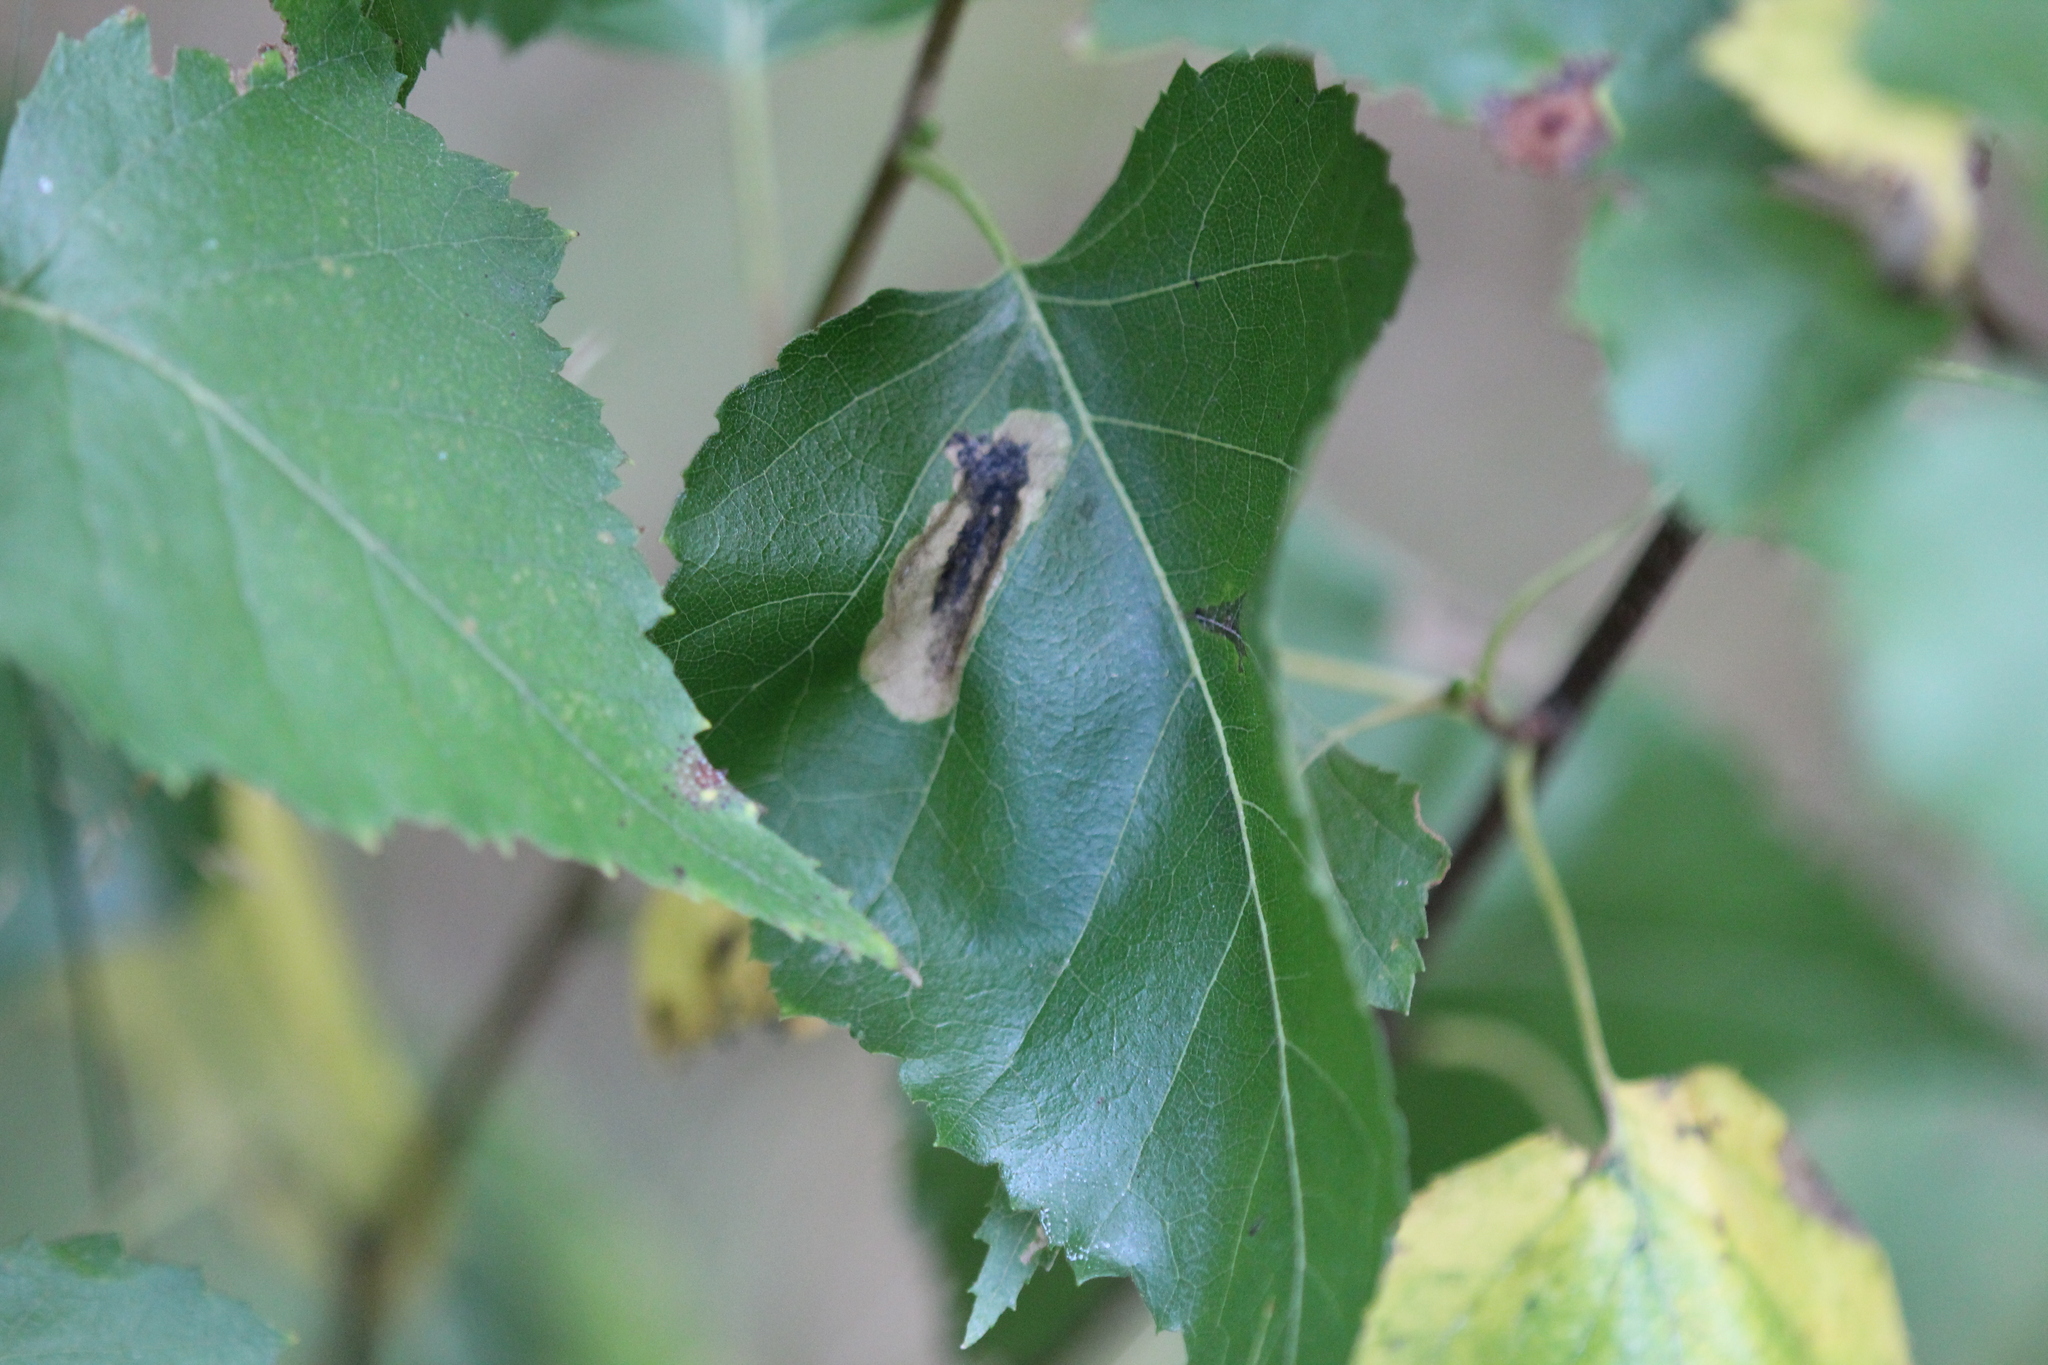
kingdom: Plantae
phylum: Tracheophyta
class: Magnoliopsida
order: Fagales
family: Betulaceae
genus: Betula
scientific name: Betula populifolia
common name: Fire birch
